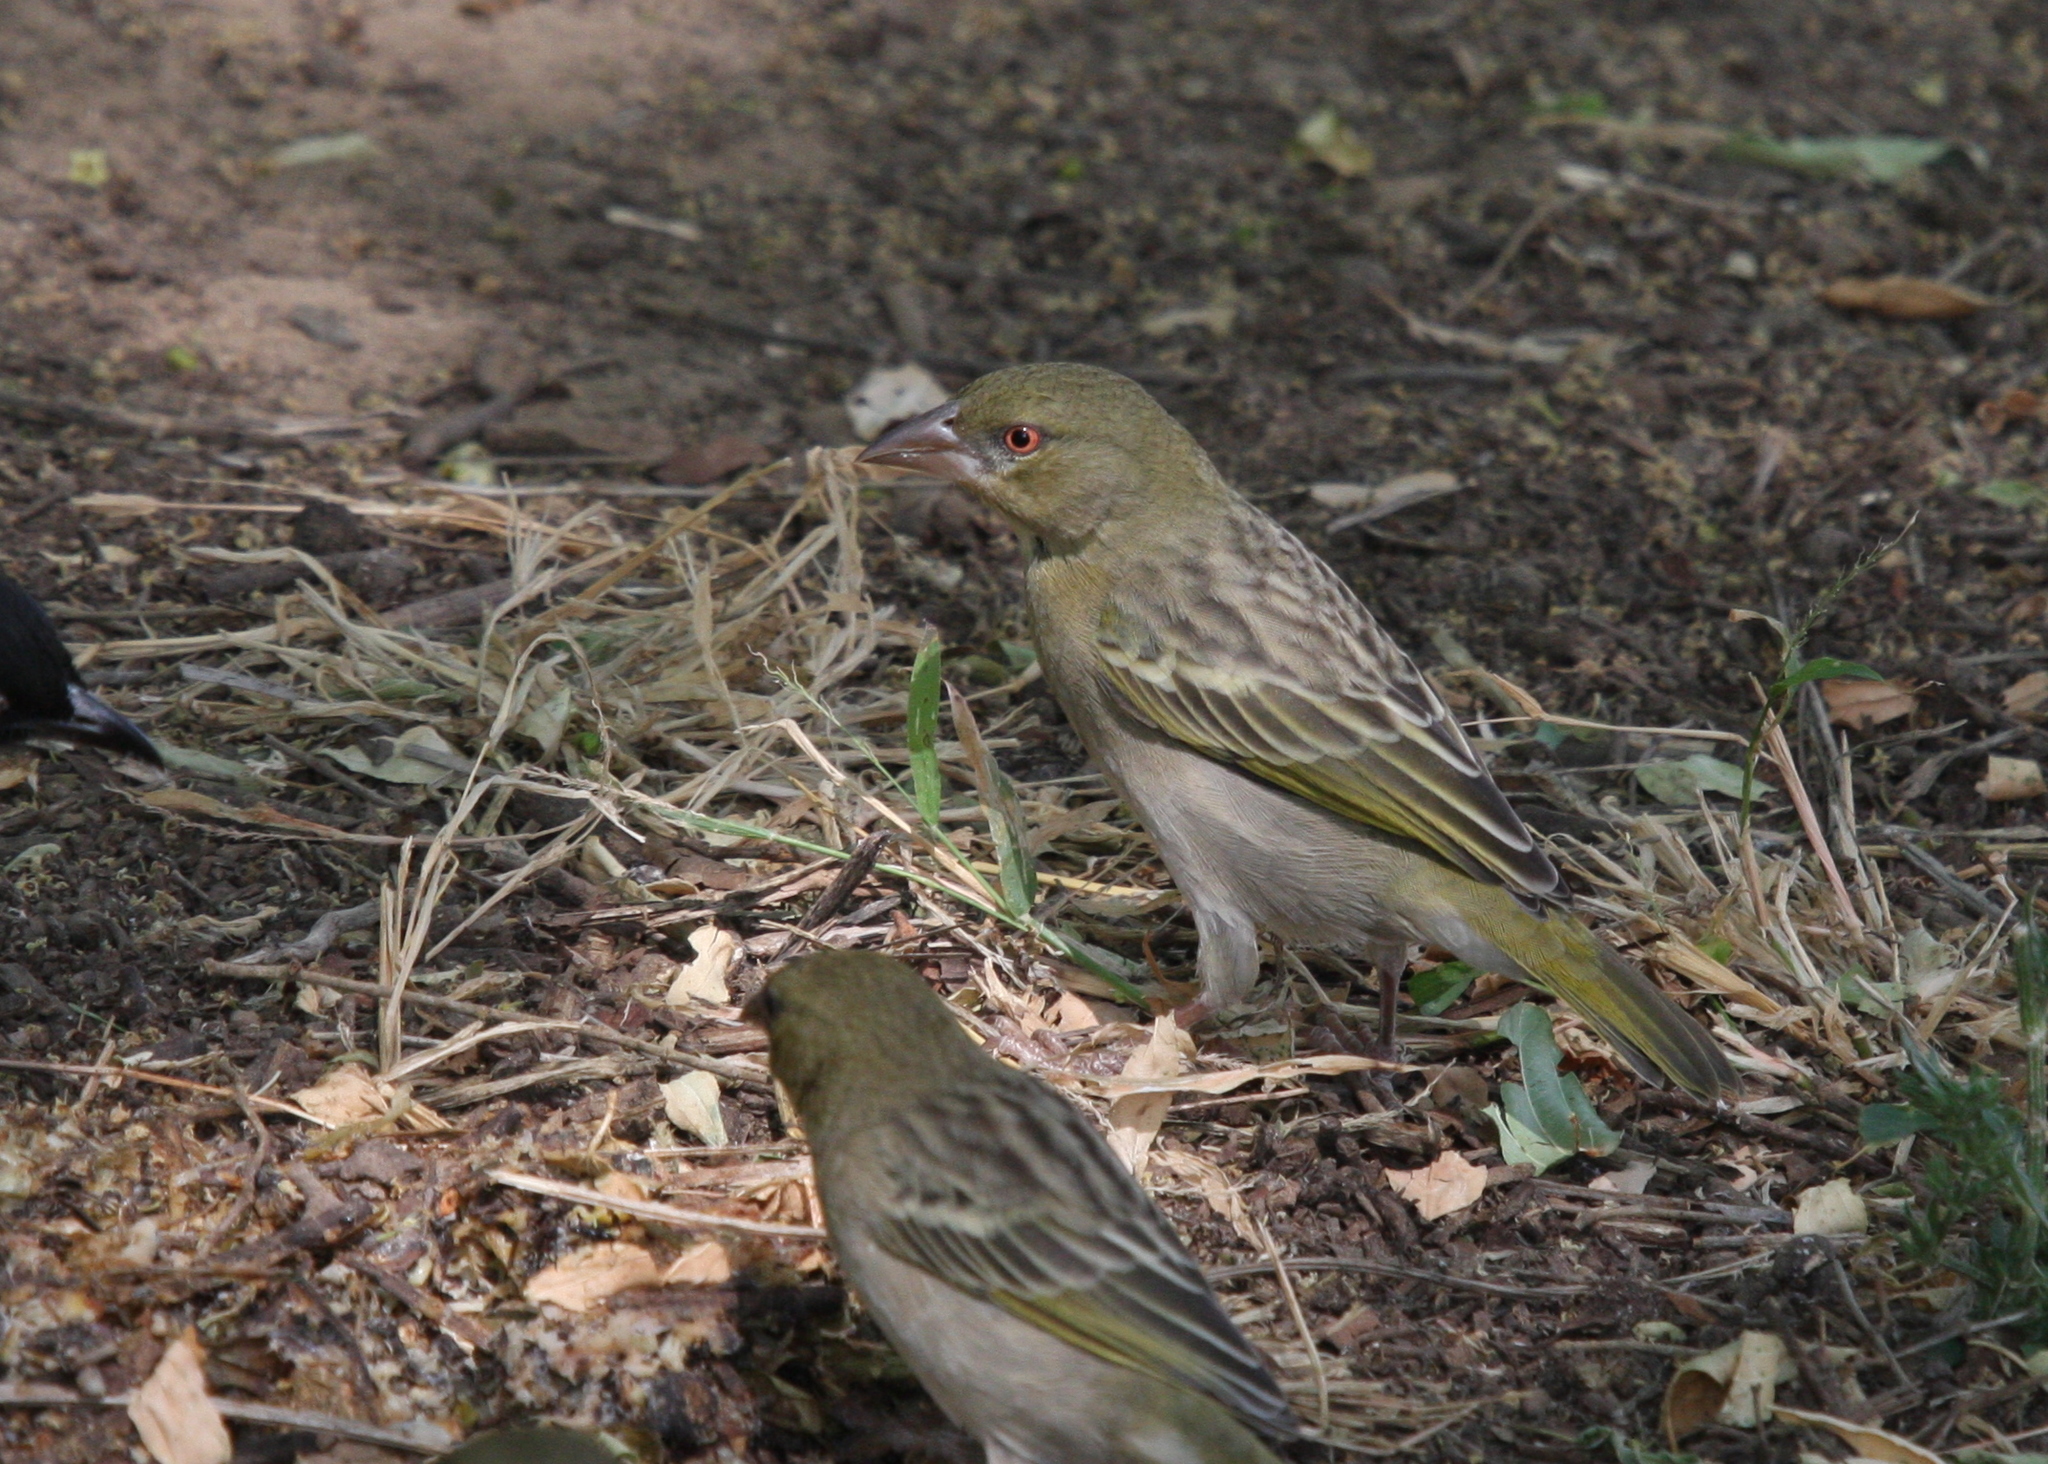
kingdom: Animalia
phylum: Chordata
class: Aves
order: Passeriformes
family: Ploceidae
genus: Ploceus
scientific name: Ploceus galbula
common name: Rüppell's weaver
